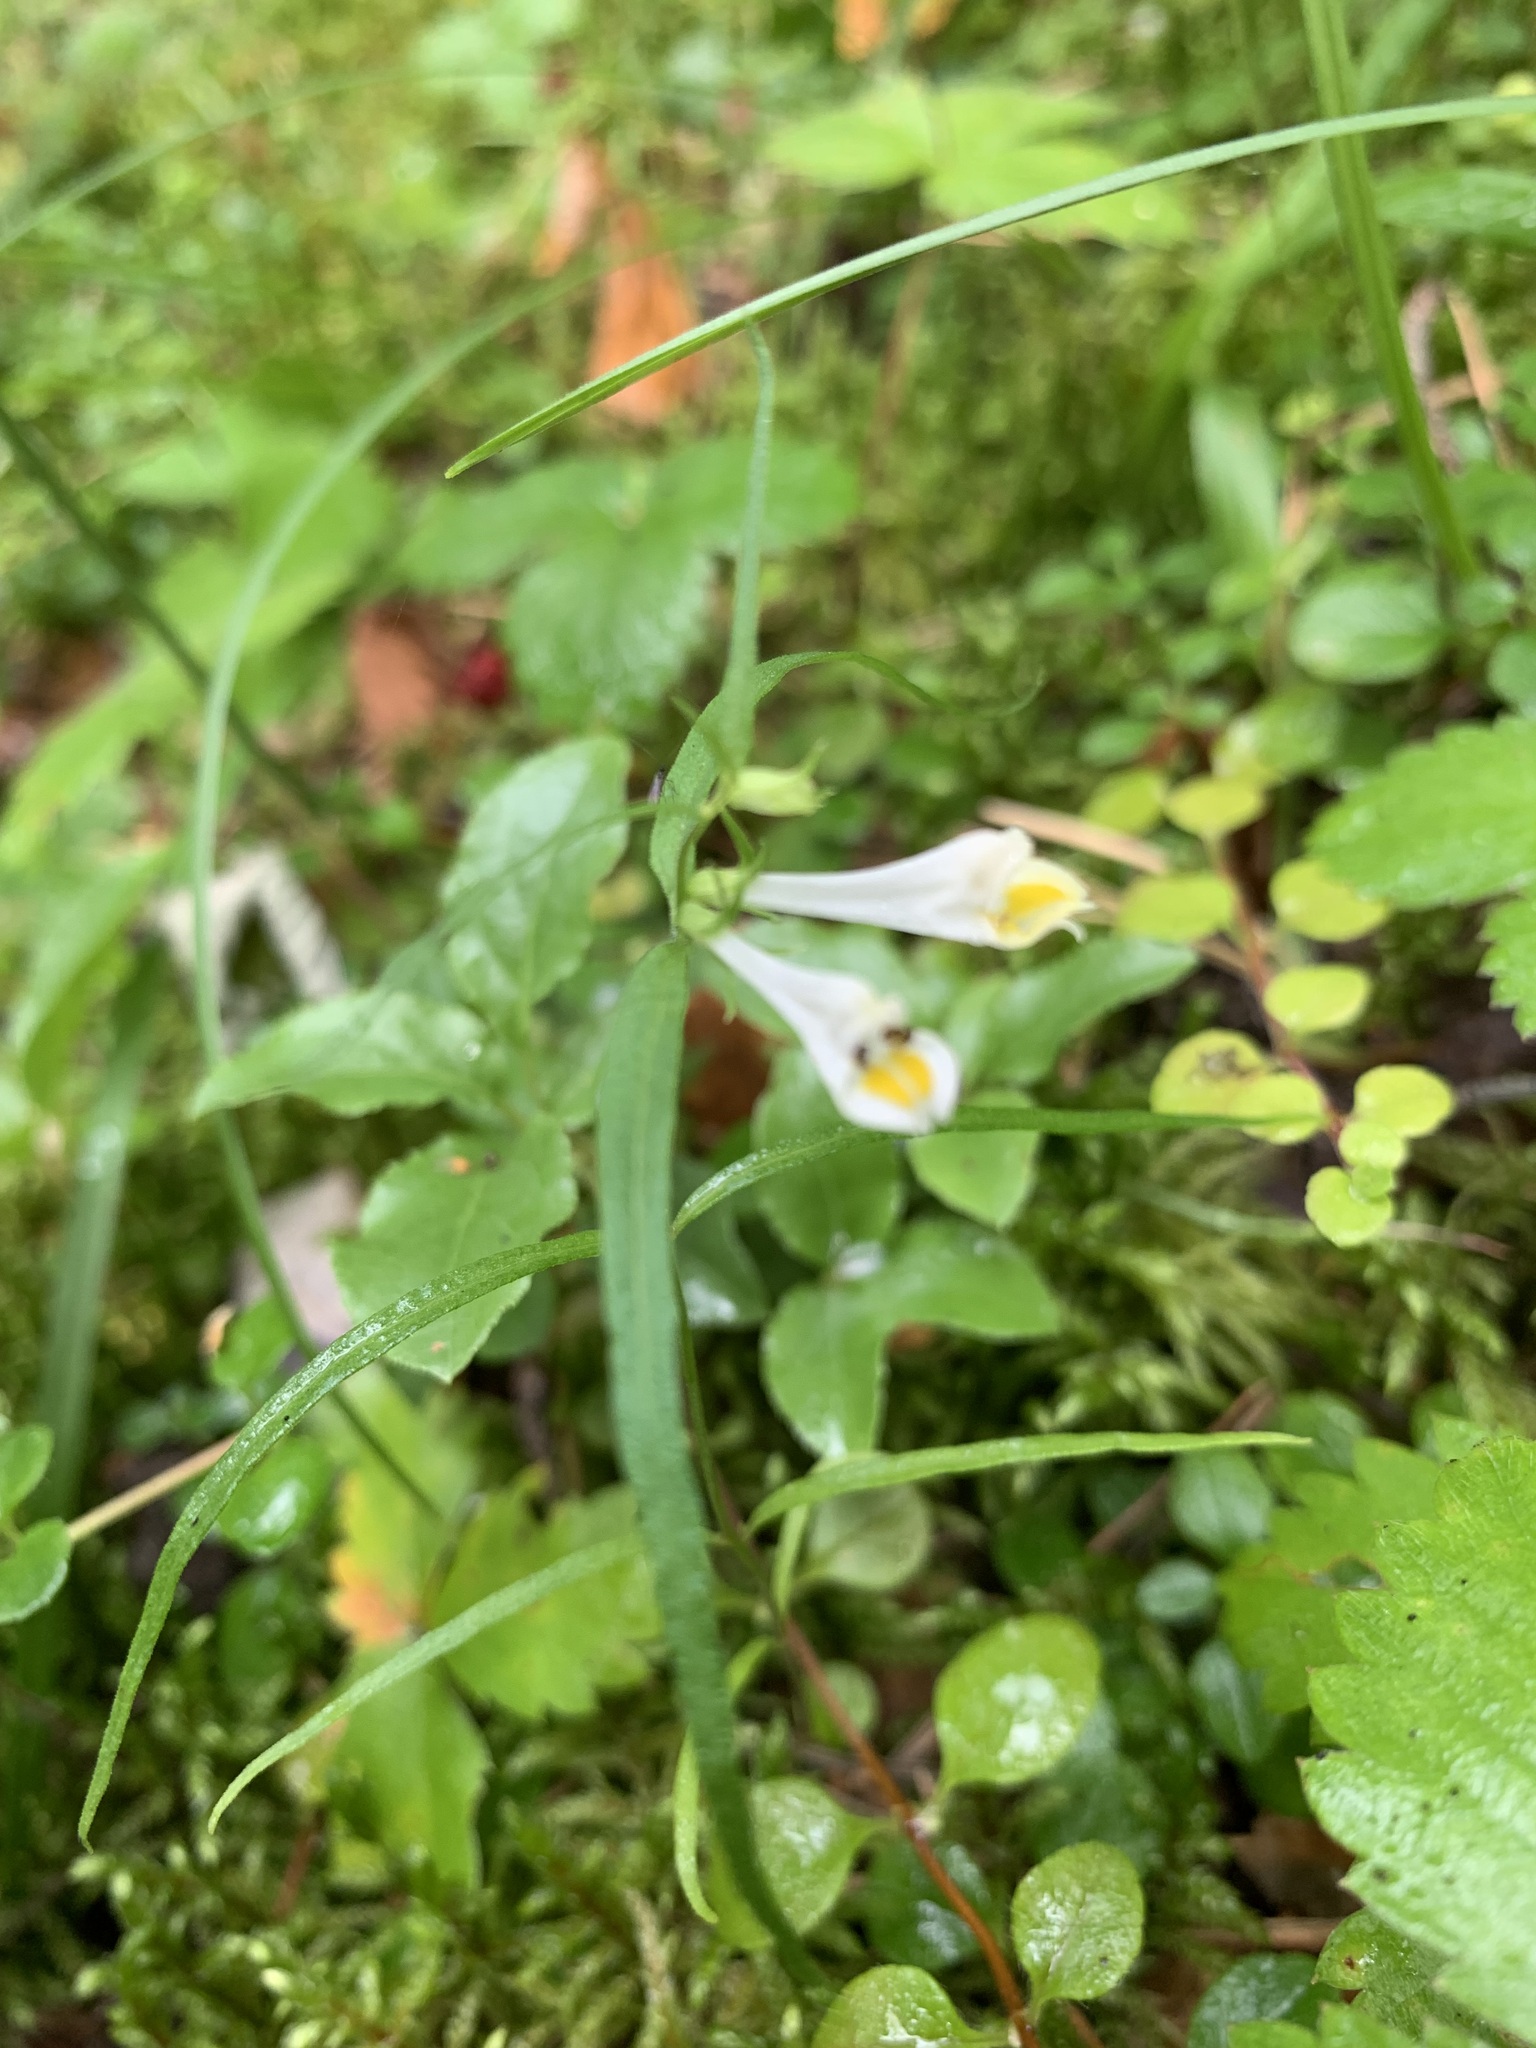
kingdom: Plantae
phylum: Tracheophyta
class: Magnoliopsida
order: Lamiales
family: Orobanchaceae
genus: Melampyrum
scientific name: Melampyrum pratense
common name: Common cow-wheat
